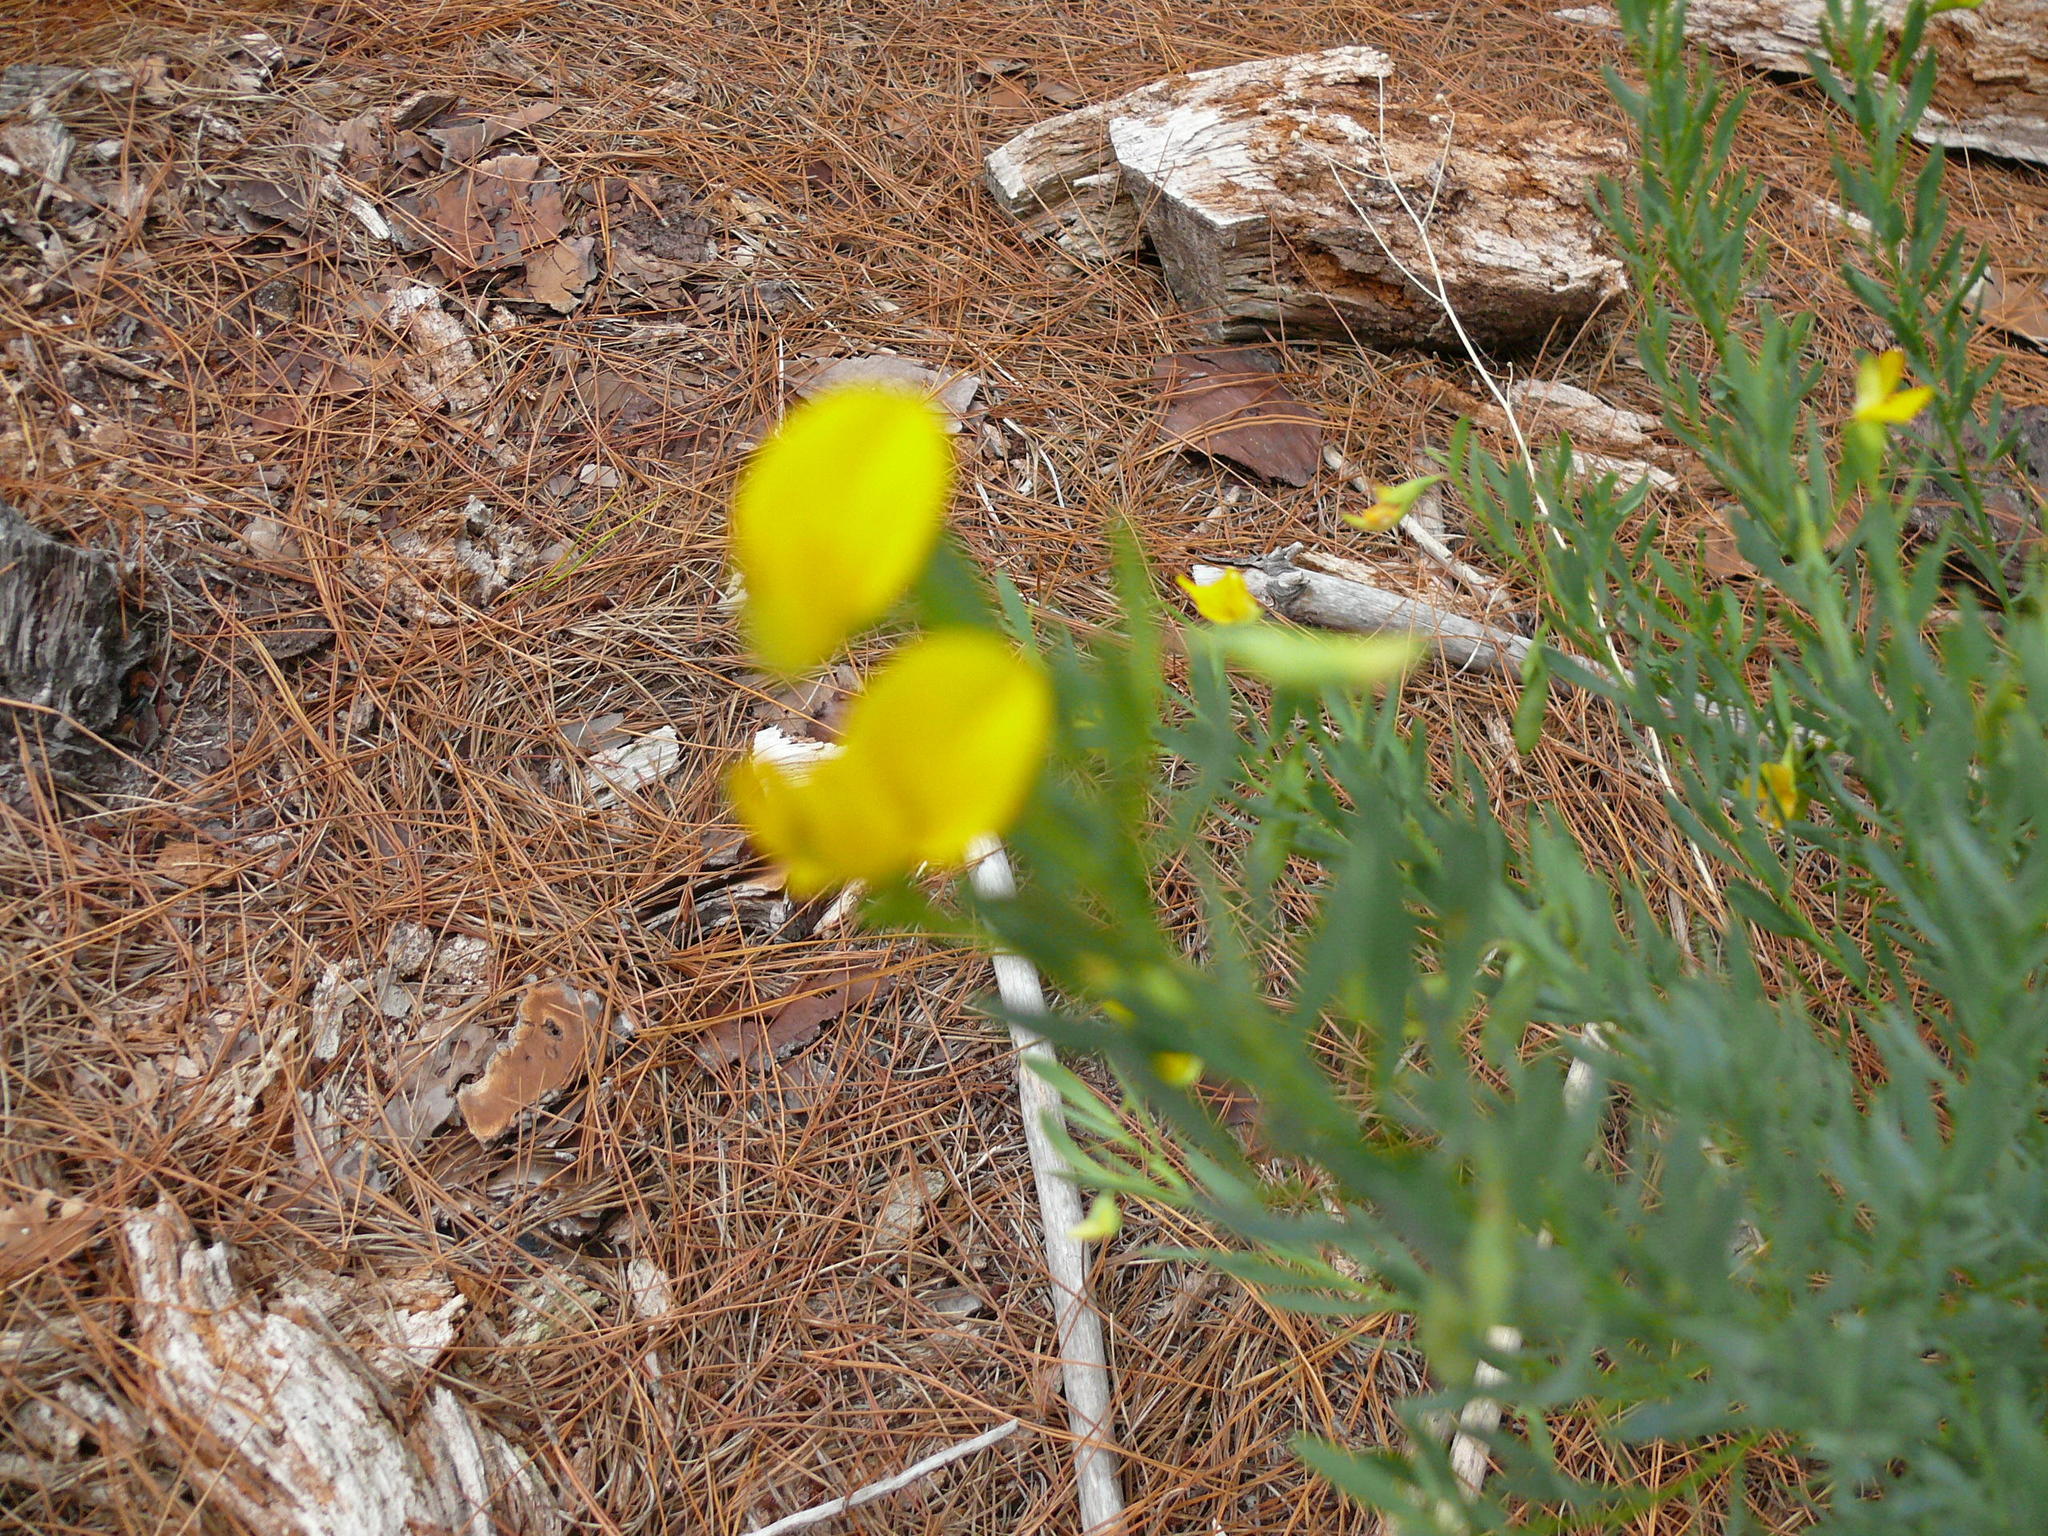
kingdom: Plantae
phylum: Tracheophyta
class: Magnoliopsida
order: Fabales
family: Fabaceae
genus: Rafnia
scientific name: Rafnia angulata
